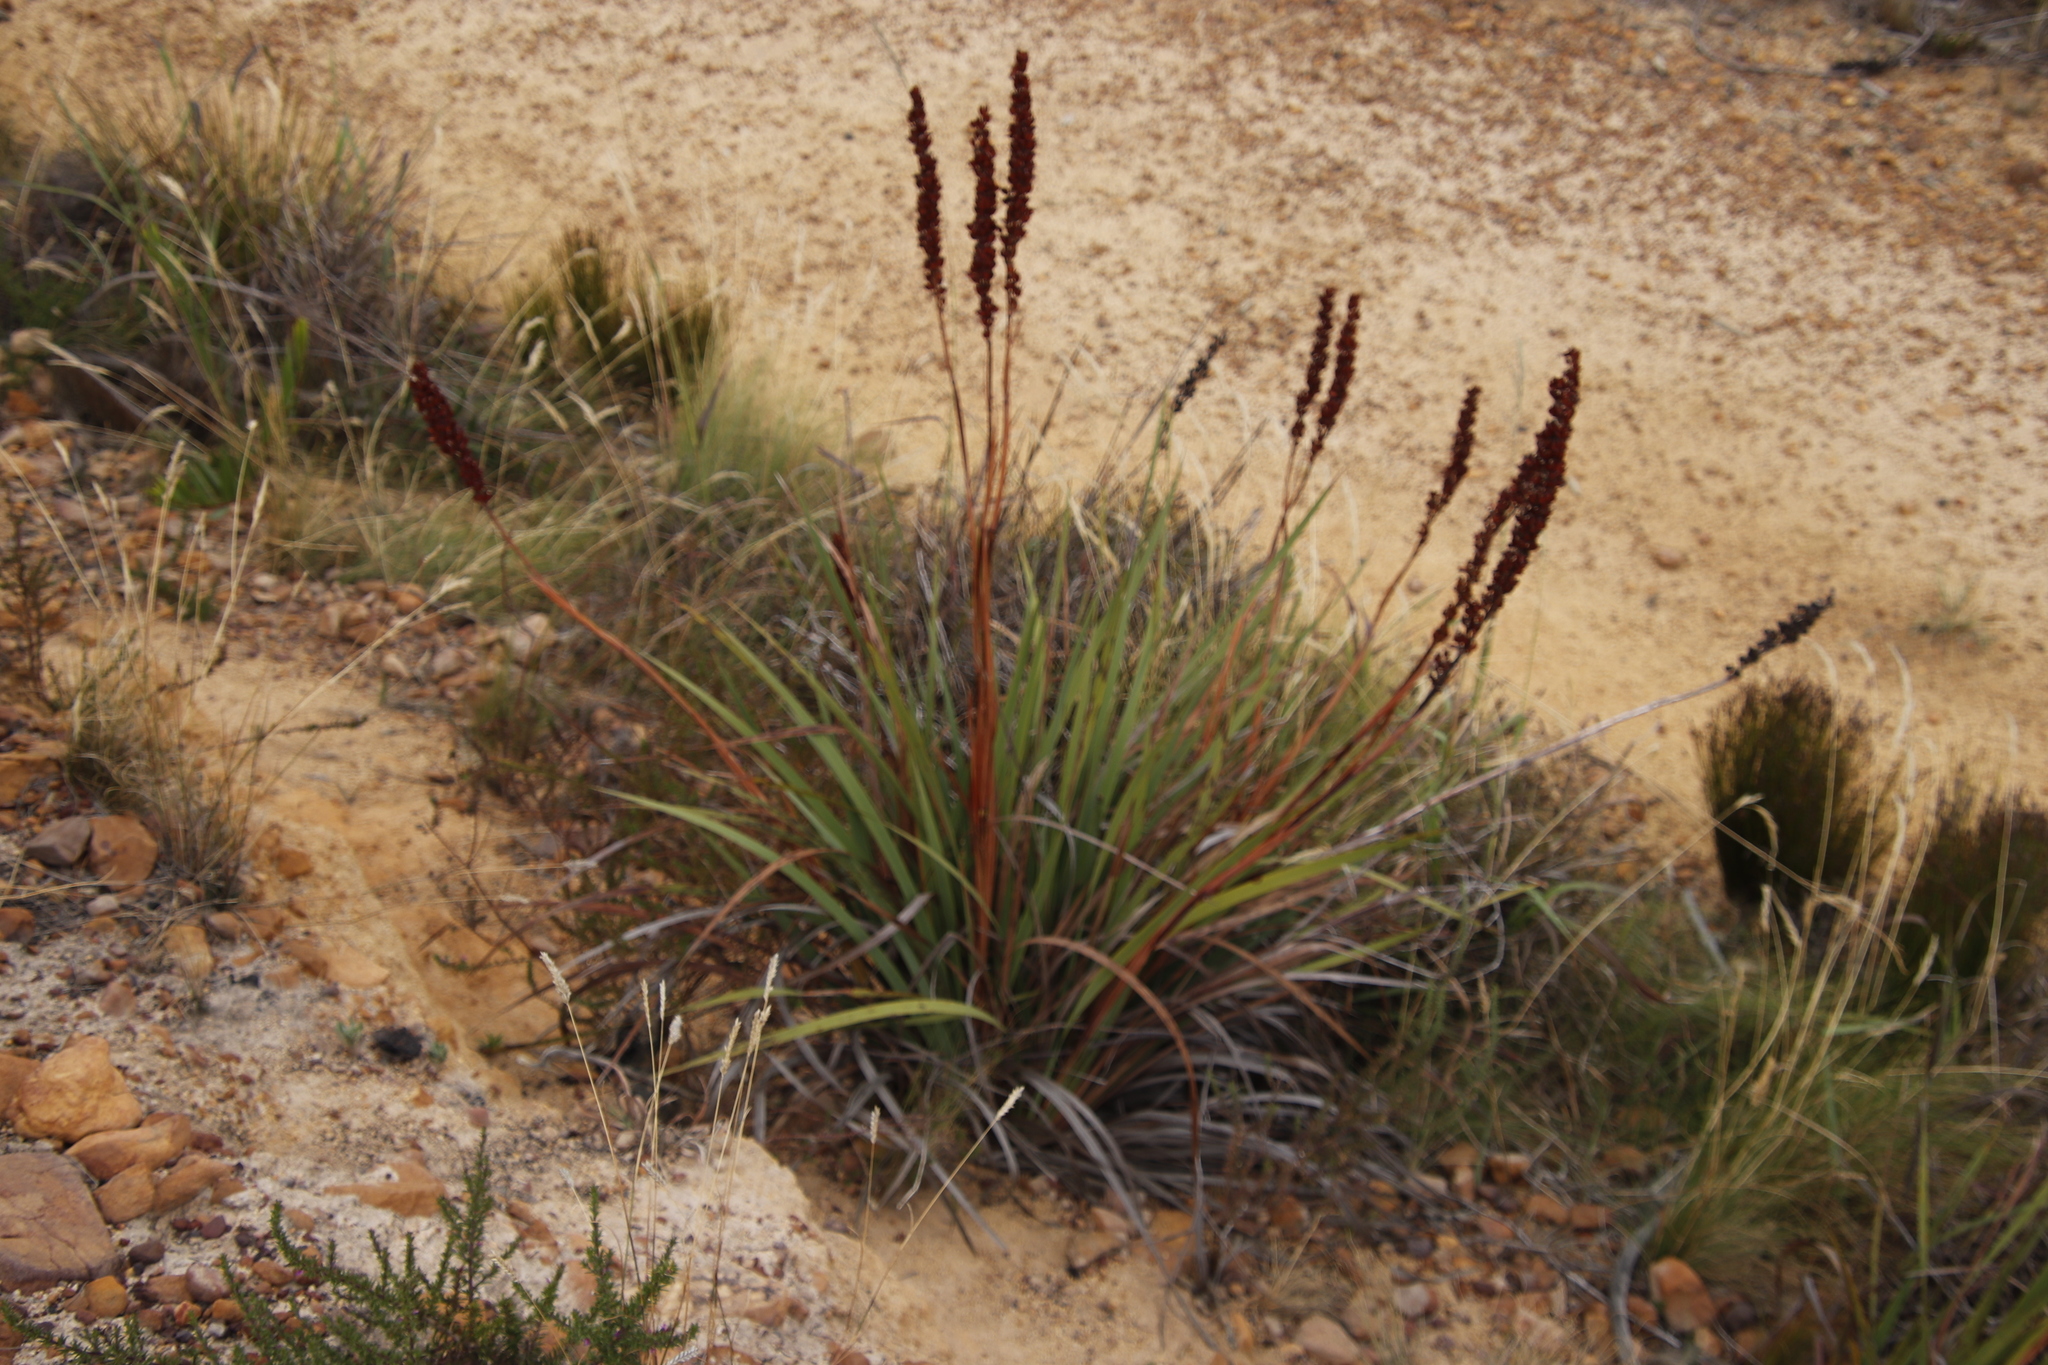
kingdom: Plantae
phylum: Tracheophyta
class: Liliopsida
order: Asparagales
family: Iridaceae
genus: Aristea
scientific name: Aristea capitata
